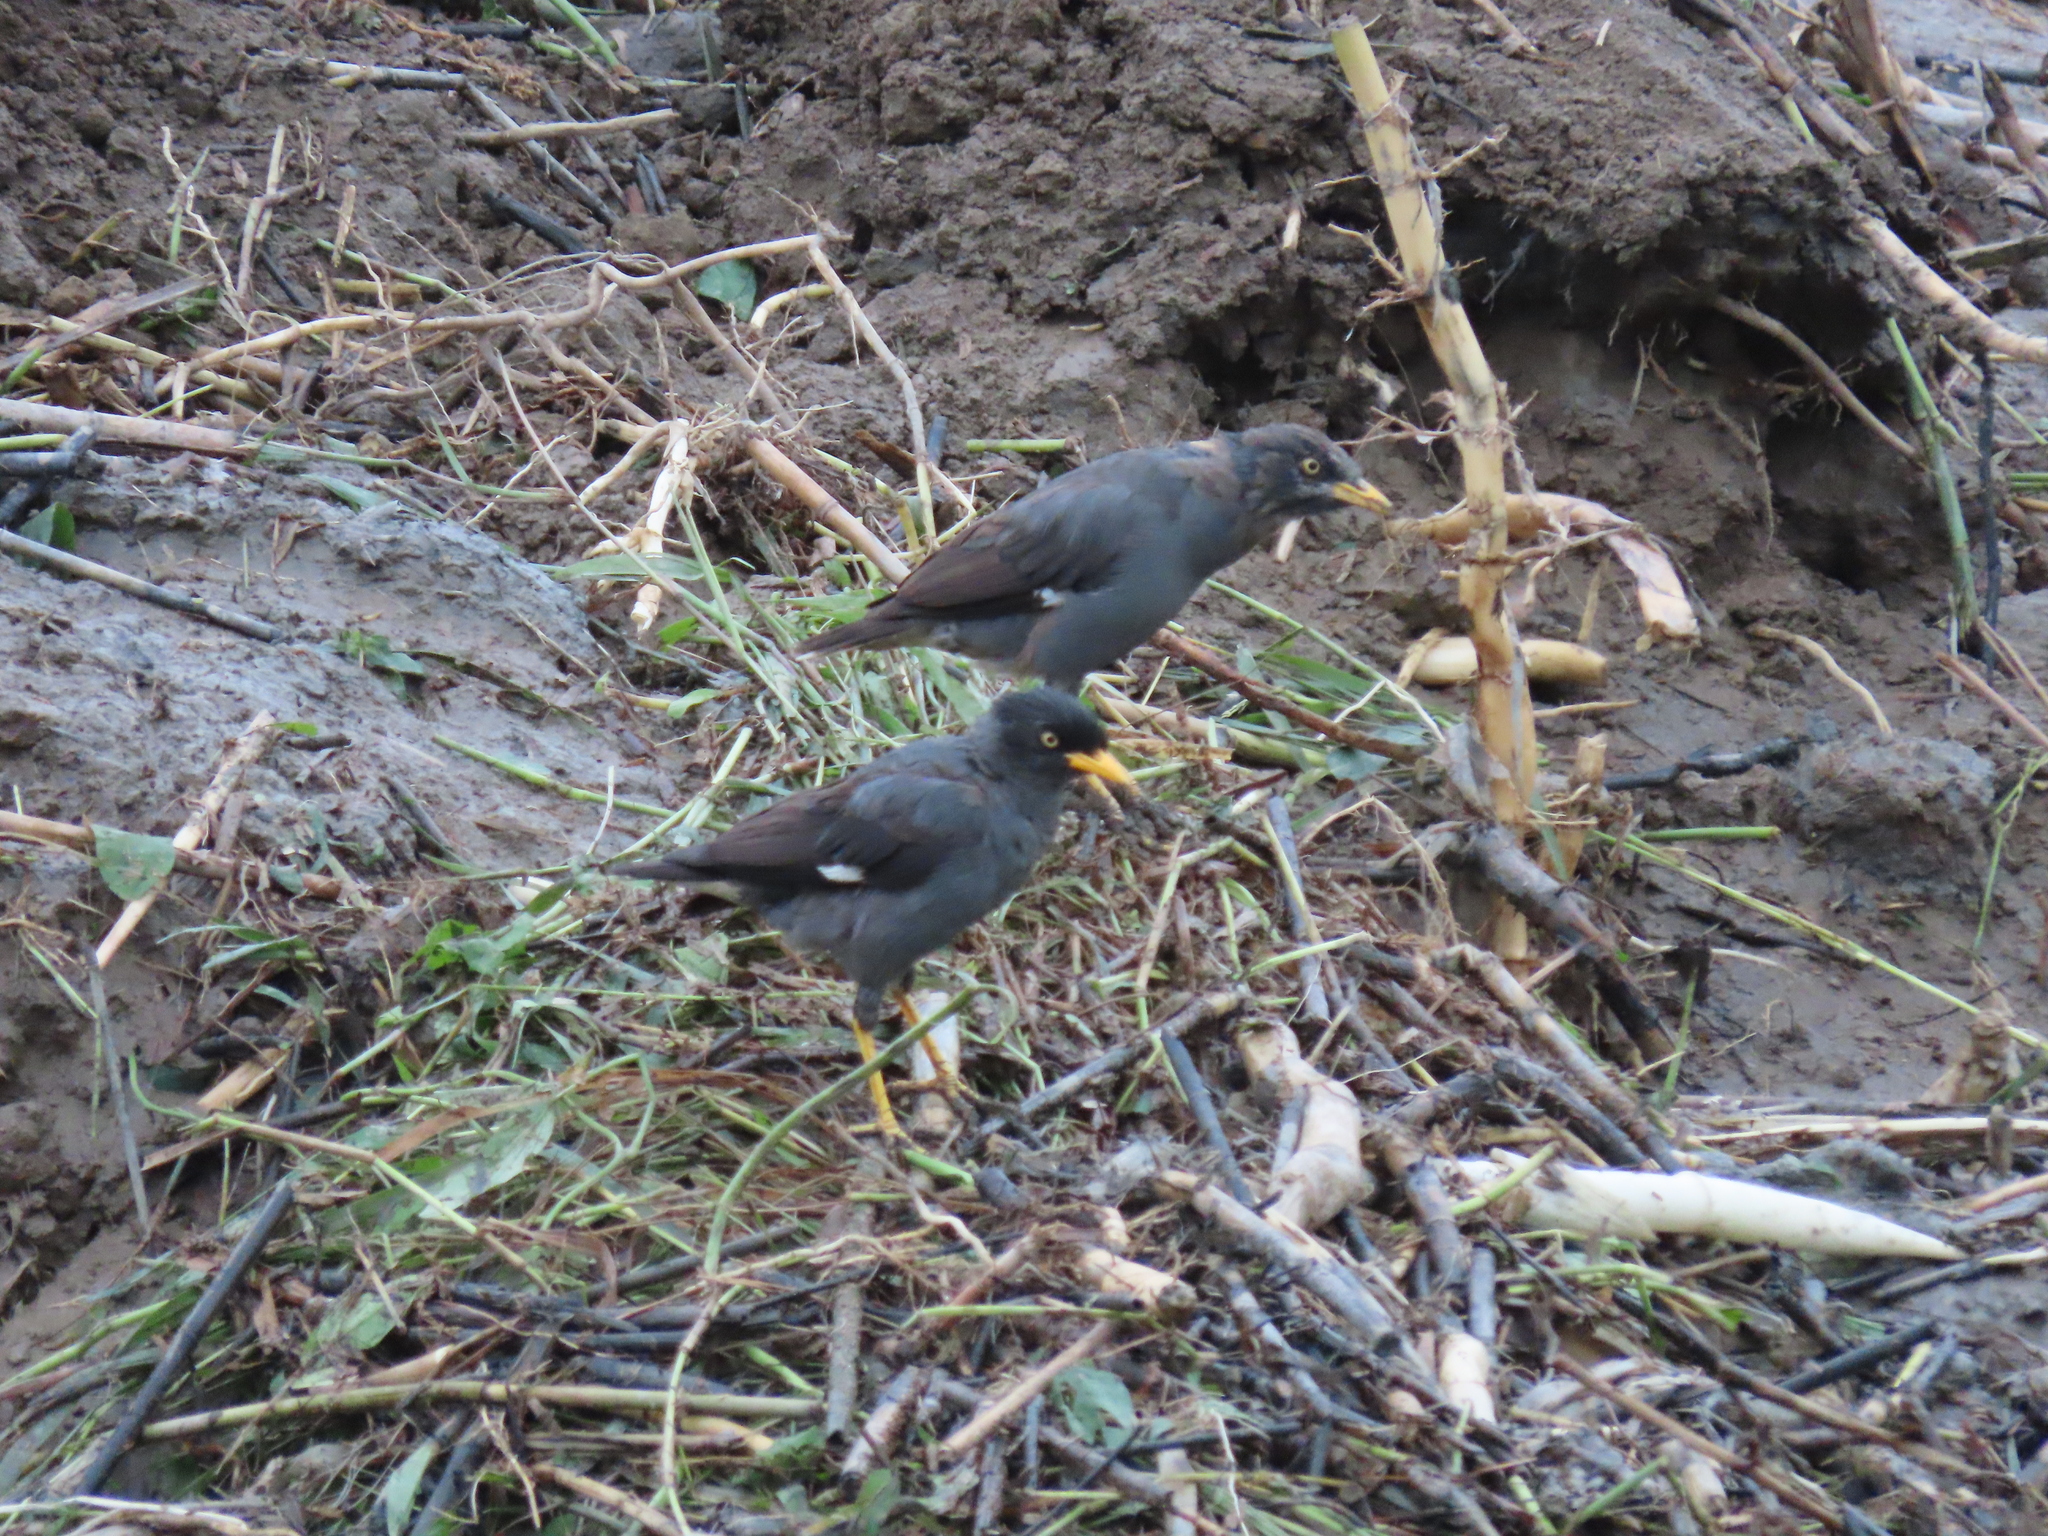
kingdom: Animalia
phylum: Chordata
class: Aves
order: Passeriformes
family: Sturnidae
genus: Acridotheres
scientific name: Acridotheres javanicus
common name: Javan myna
